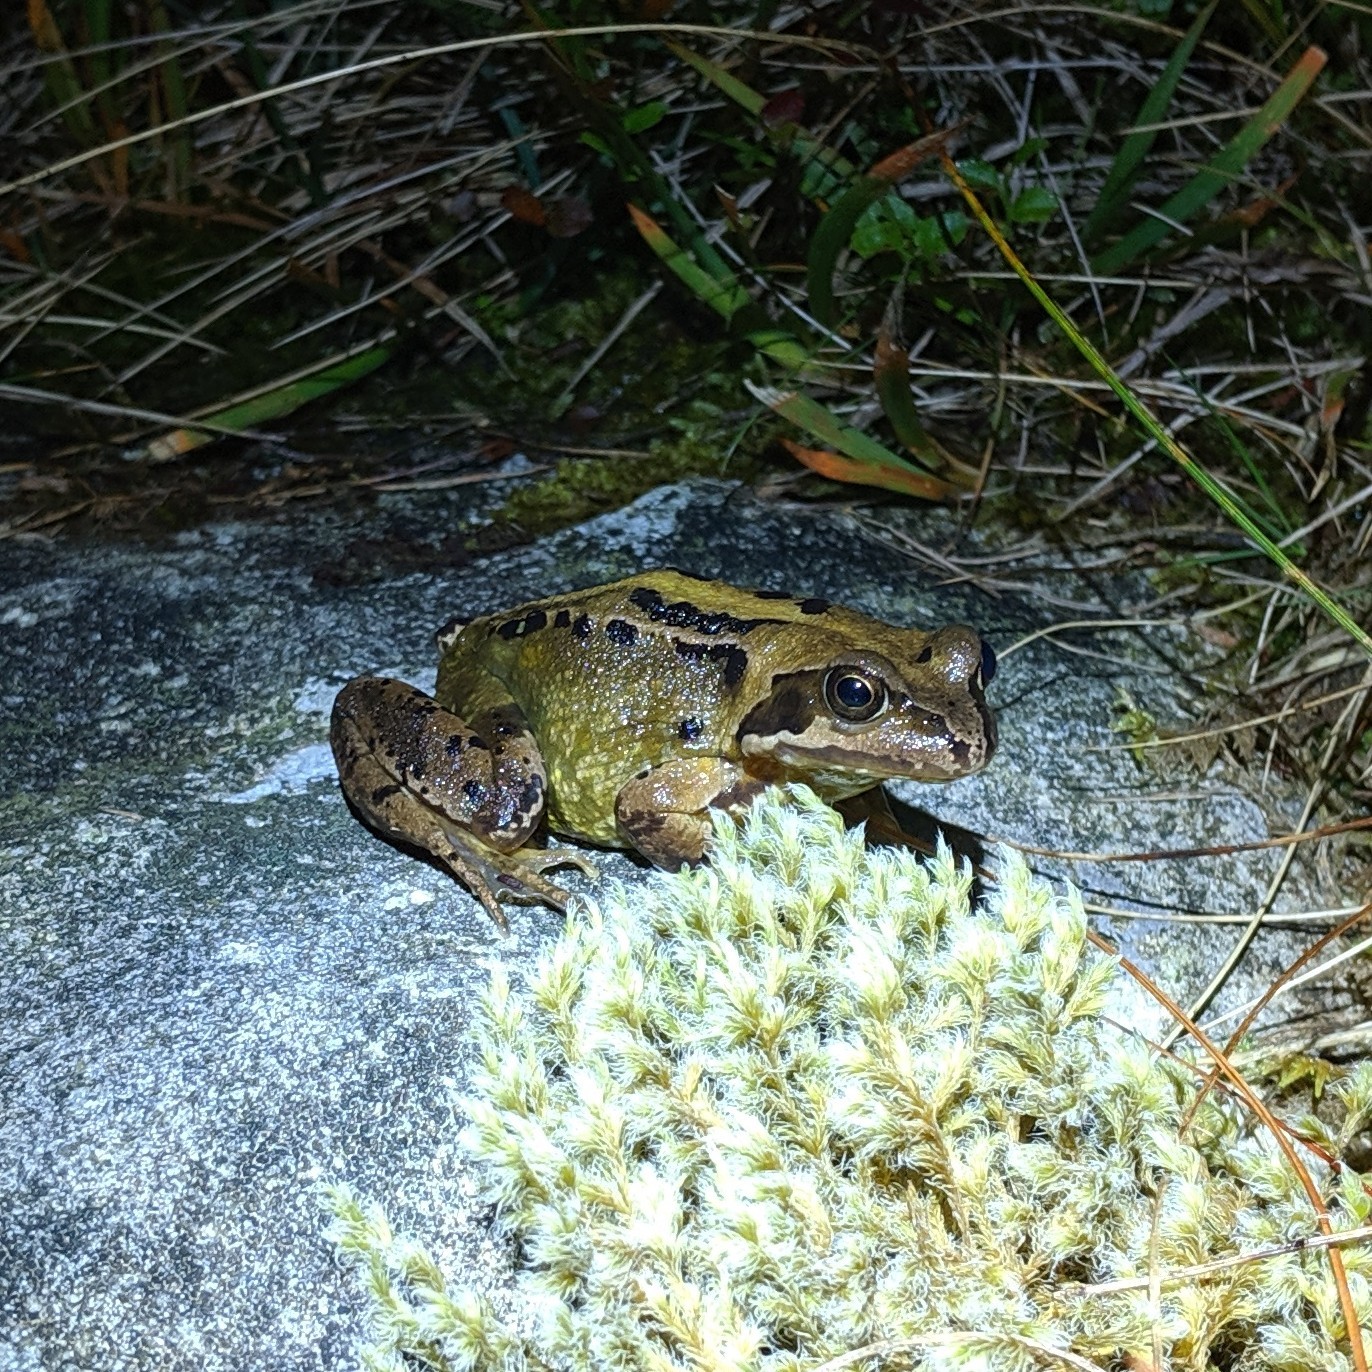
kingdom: Animalia
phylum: Chordata
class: Amphibia
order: Anura
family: Ranidae
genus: Rana
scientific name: Rana temporaria
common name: Common frog
